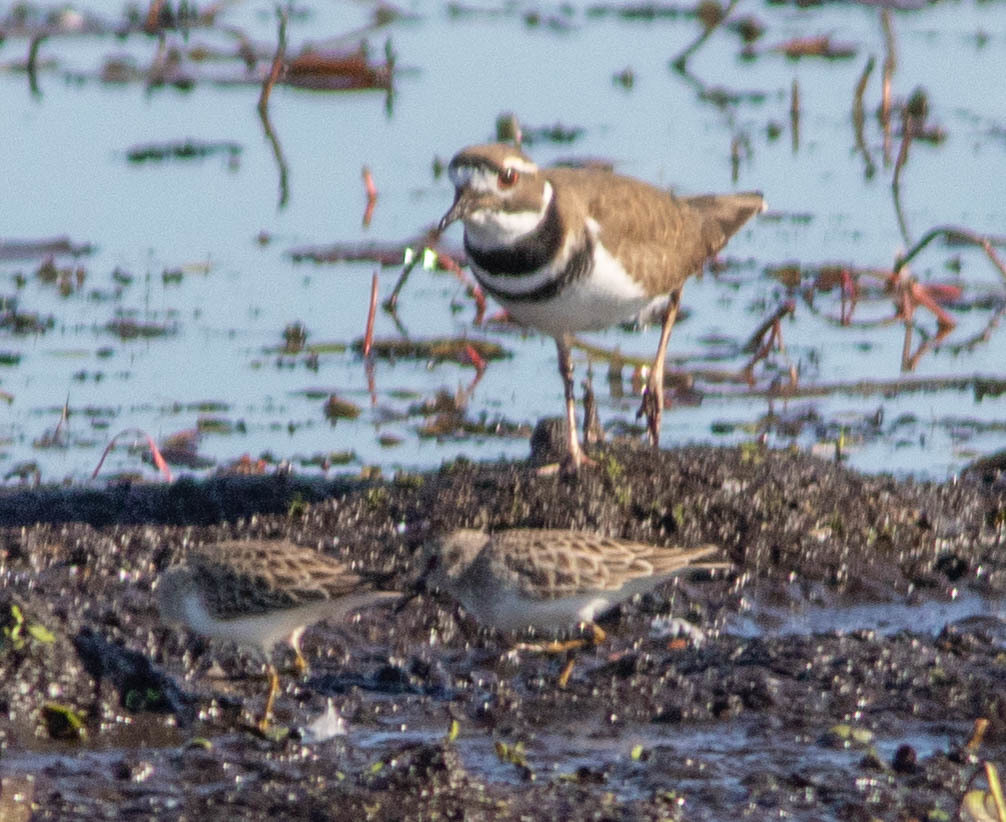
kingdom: Animalia
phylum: Chordata
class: Aves
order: Charadriiformes
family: Charadriidae
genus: Charadrius
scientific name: Charadrius vociferus
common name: Killdeer
